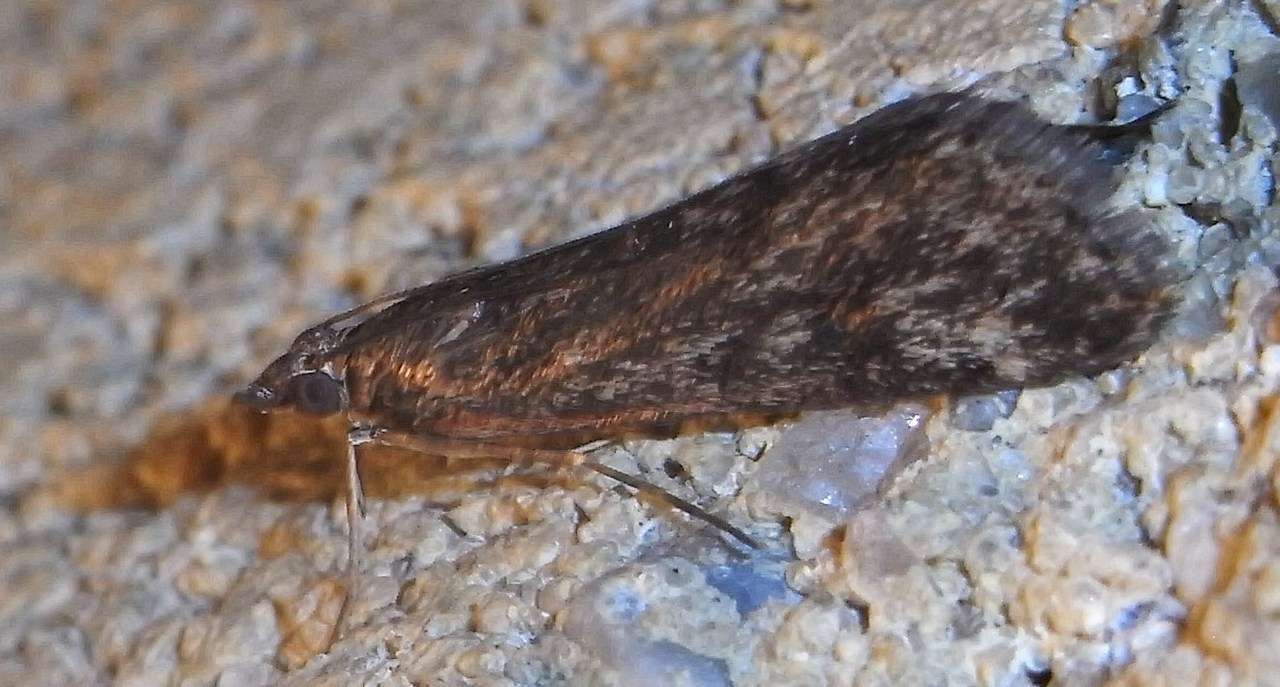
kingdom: Animalia
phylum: Arthropoda
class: Insecta
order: Lepidoptera
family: Crambidae
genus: Achyra
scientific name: Achyra affinitalis
